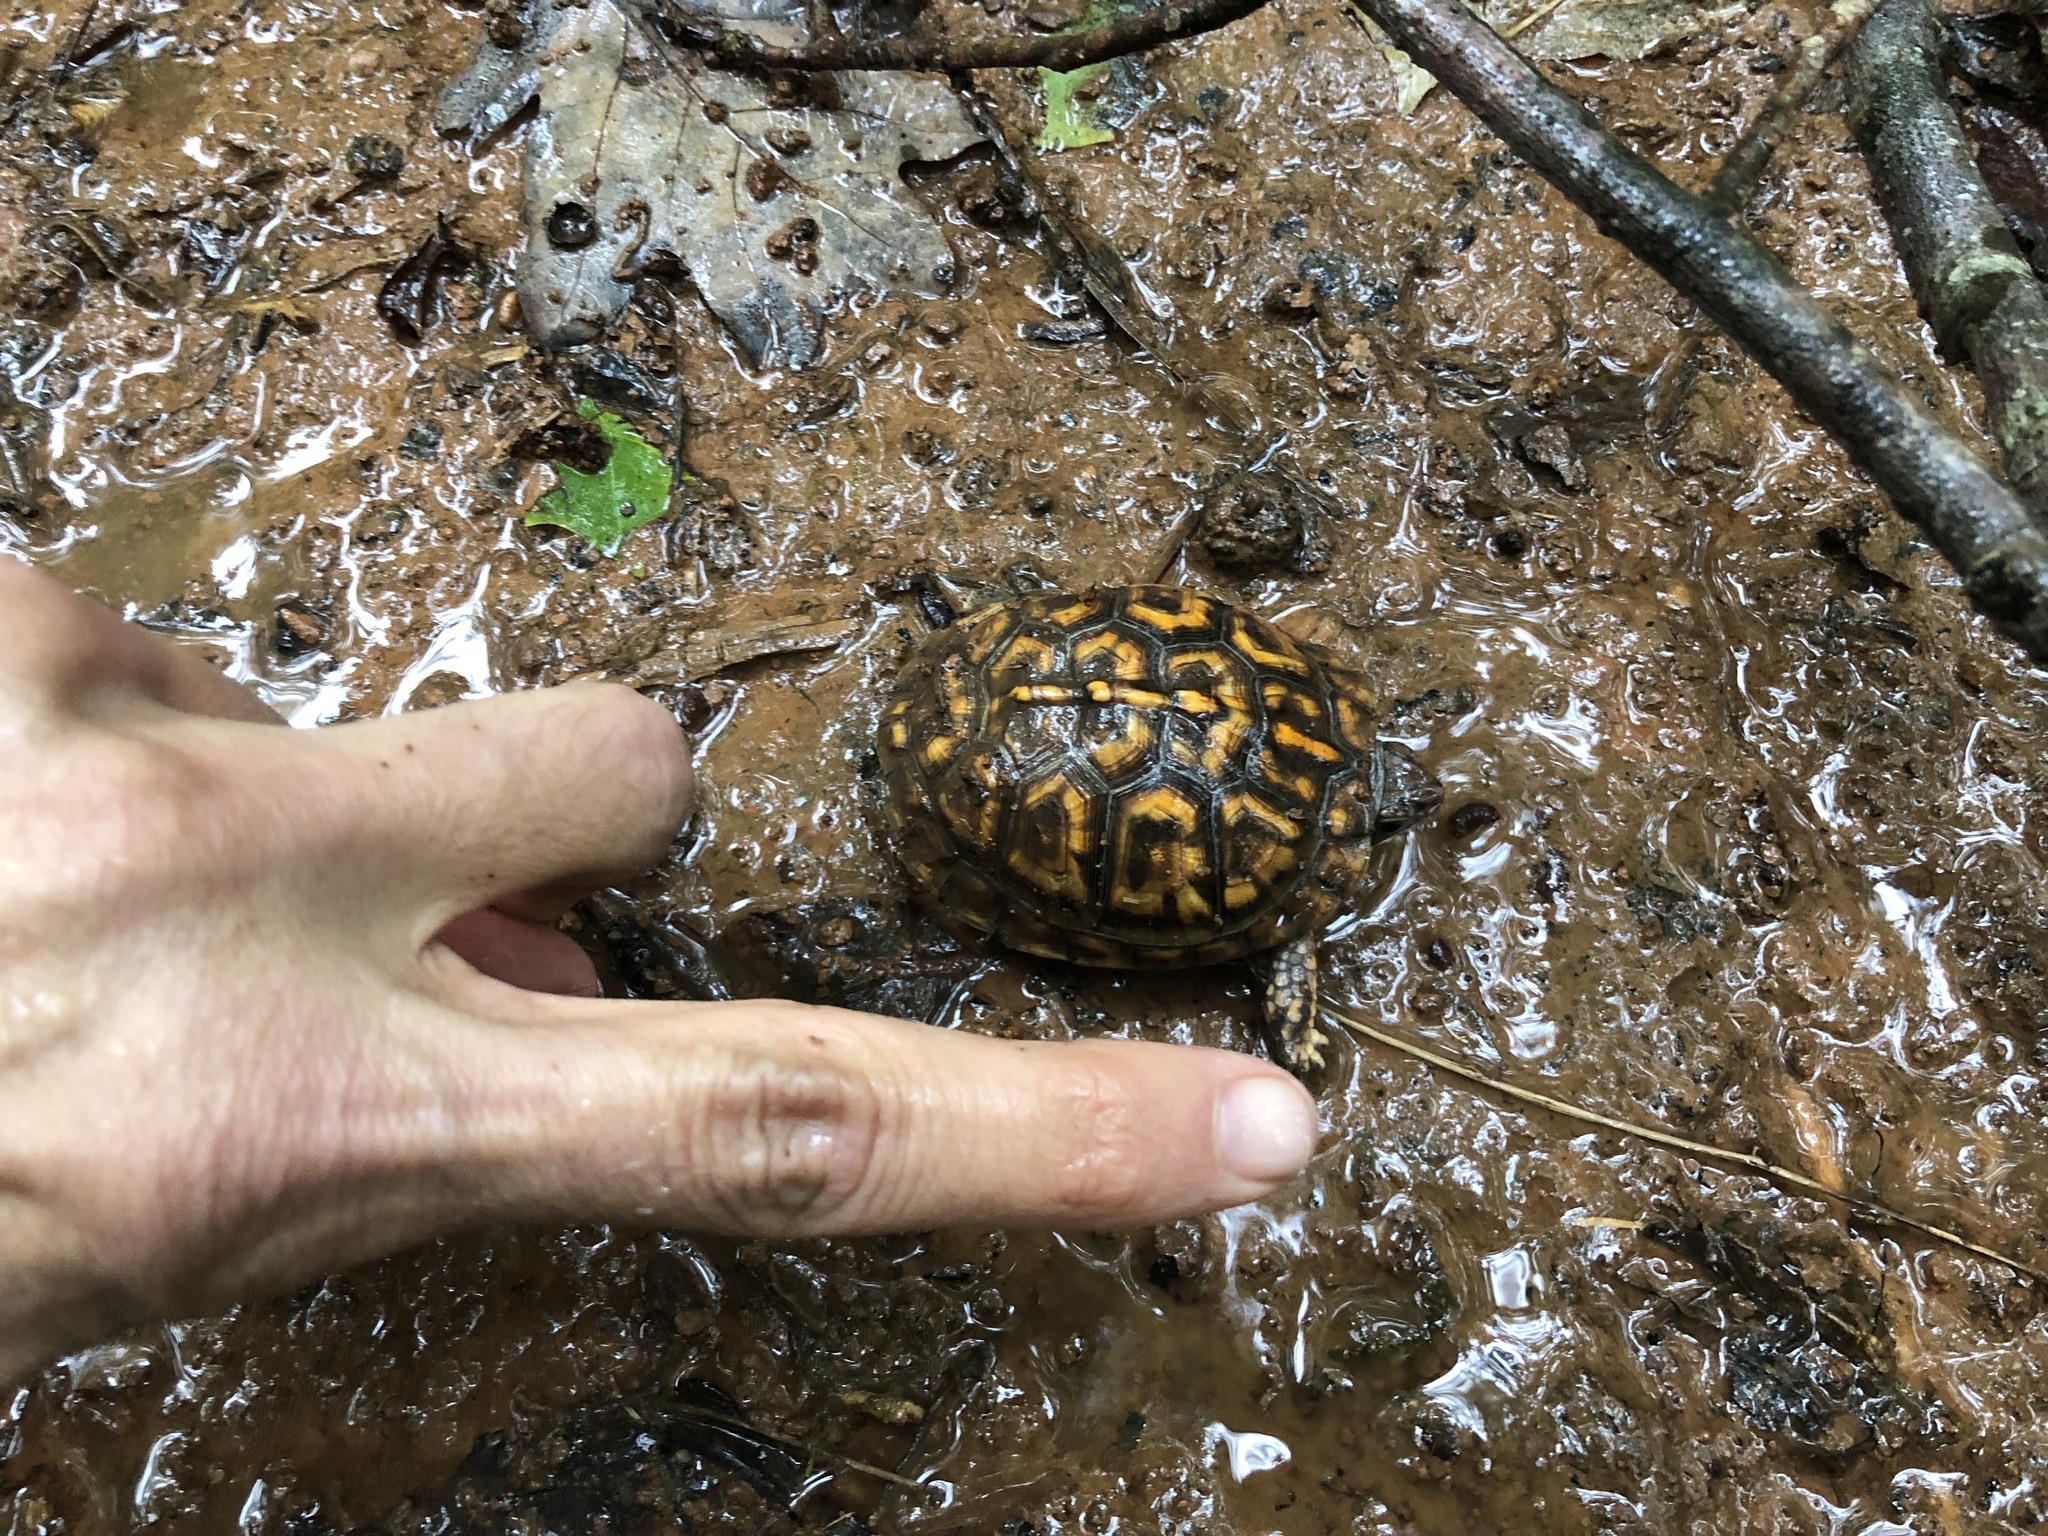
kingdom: Animalia
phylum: Chordata
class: Testudines
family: Emydidae
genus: Terrapene
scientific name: Terrapene carolina
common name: Common box turtle
